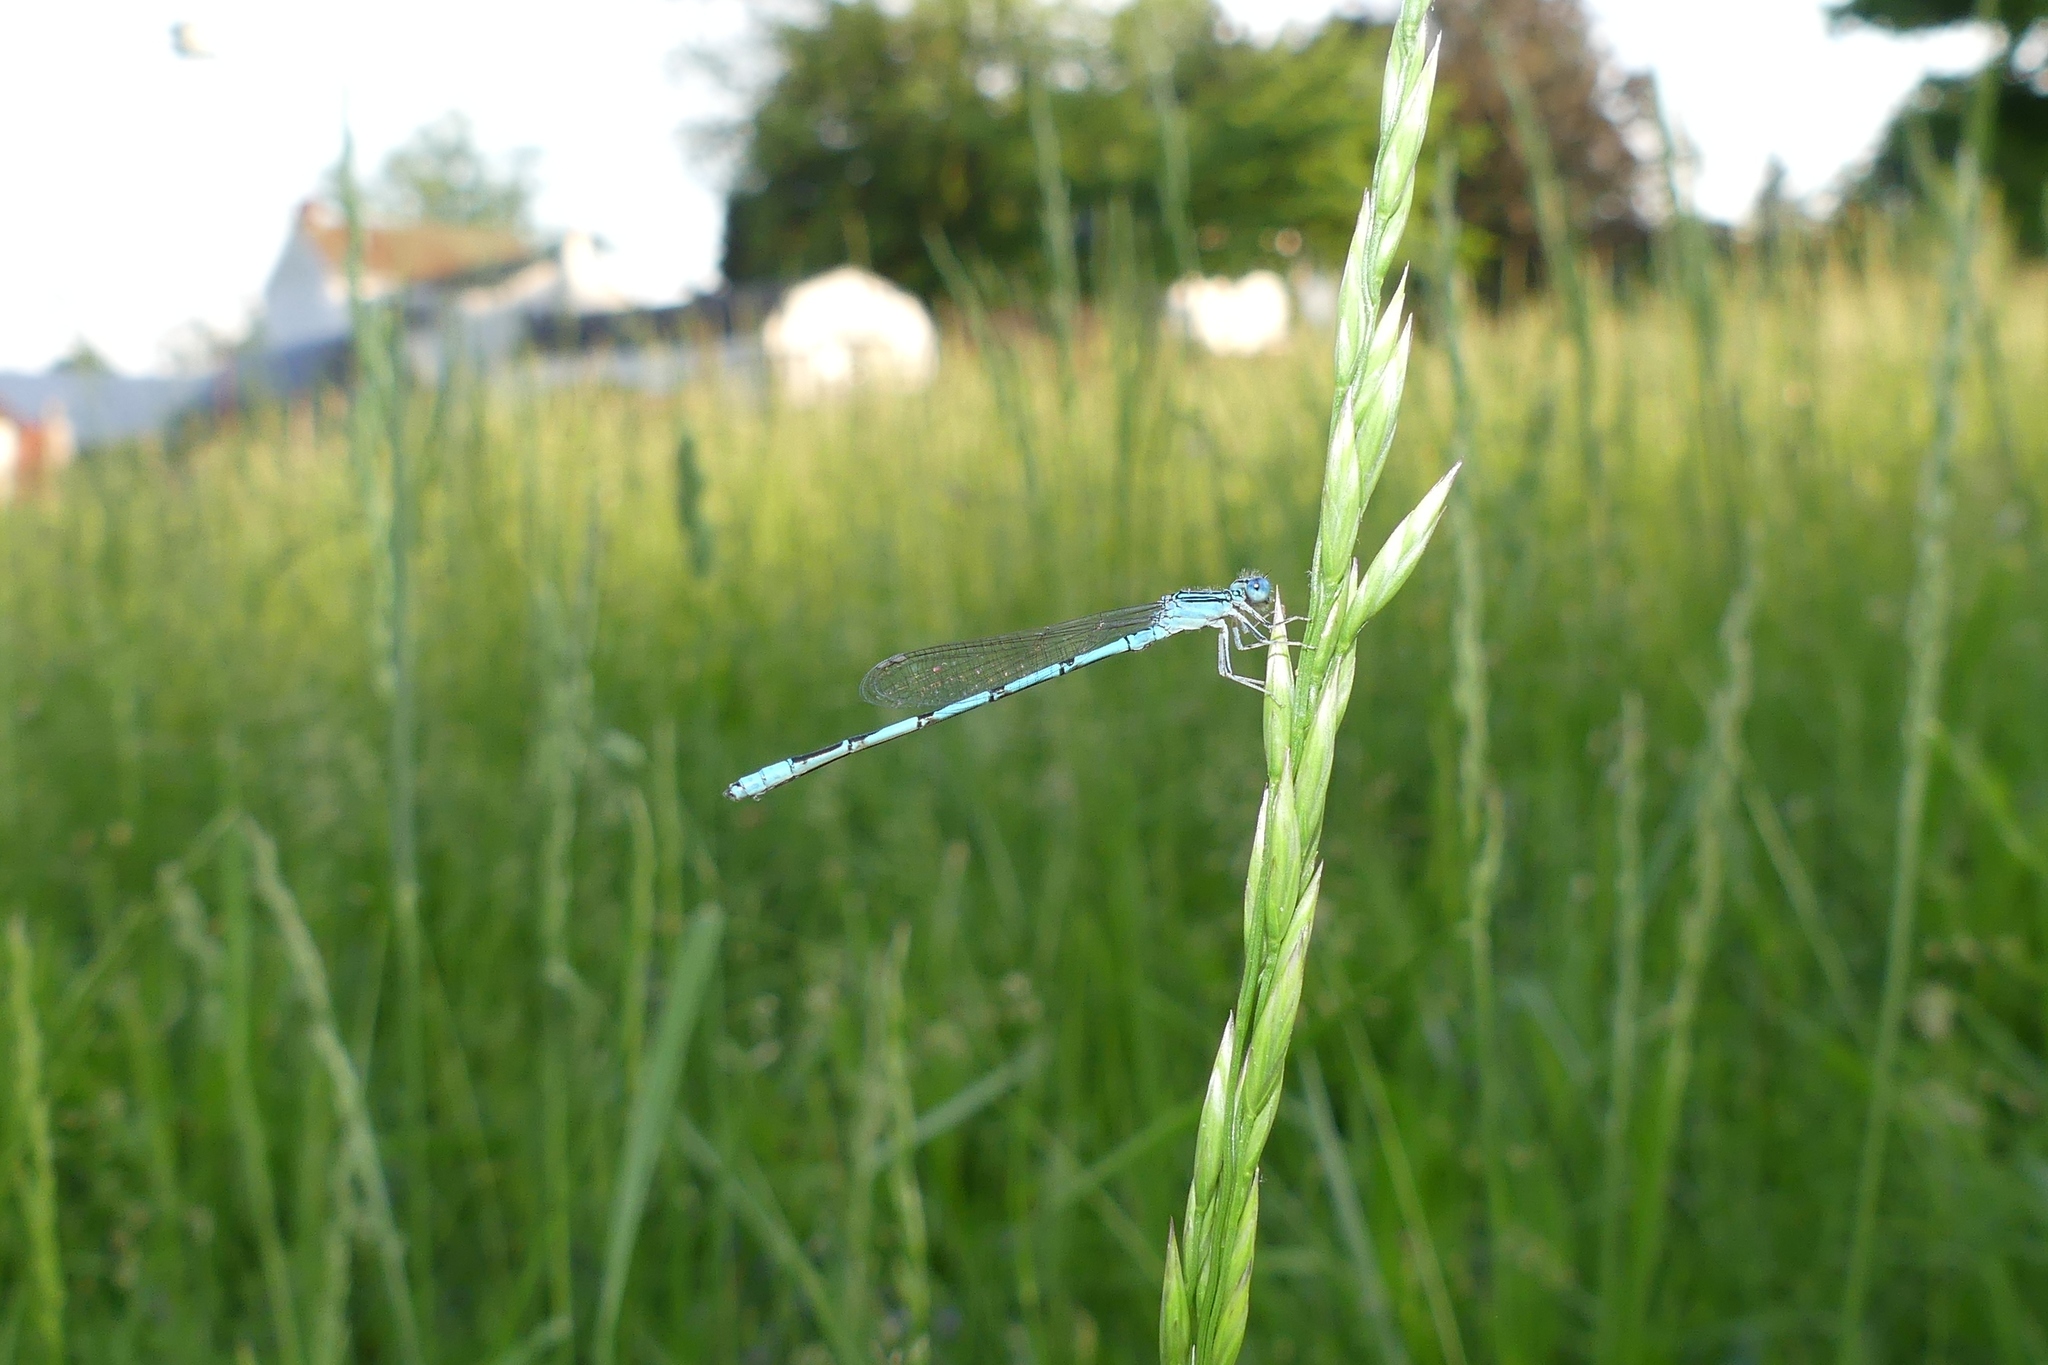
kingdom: Animalia
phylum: Arthropoda
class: Insecta
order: Odonata
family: Coenagrionidae
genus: Enallagma
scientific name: Enallagma basidens
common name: Double-striped bluet
